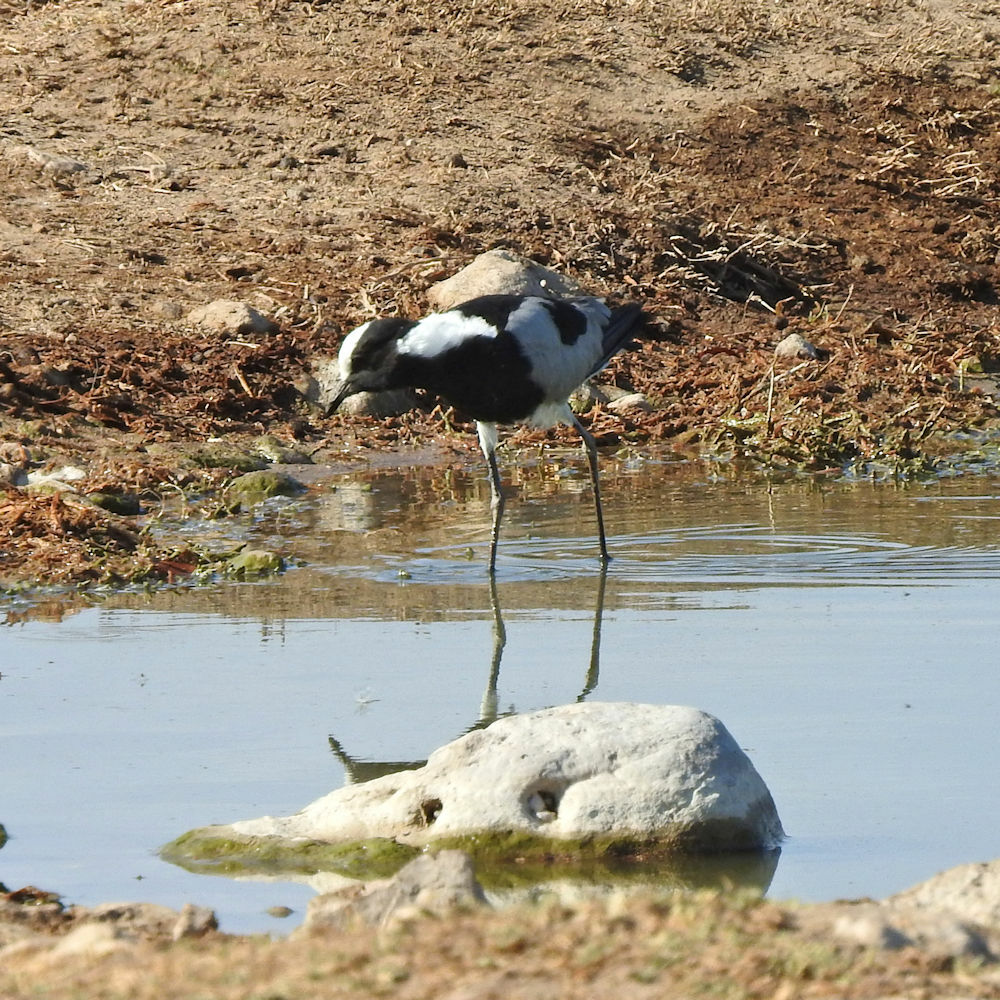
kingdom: Animalia
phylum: Chordata
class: Aves
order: Charadriiformes
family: Charadriidae
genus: Vanellus
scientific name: Vanellus armatus
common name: Blacksmith lapwing
